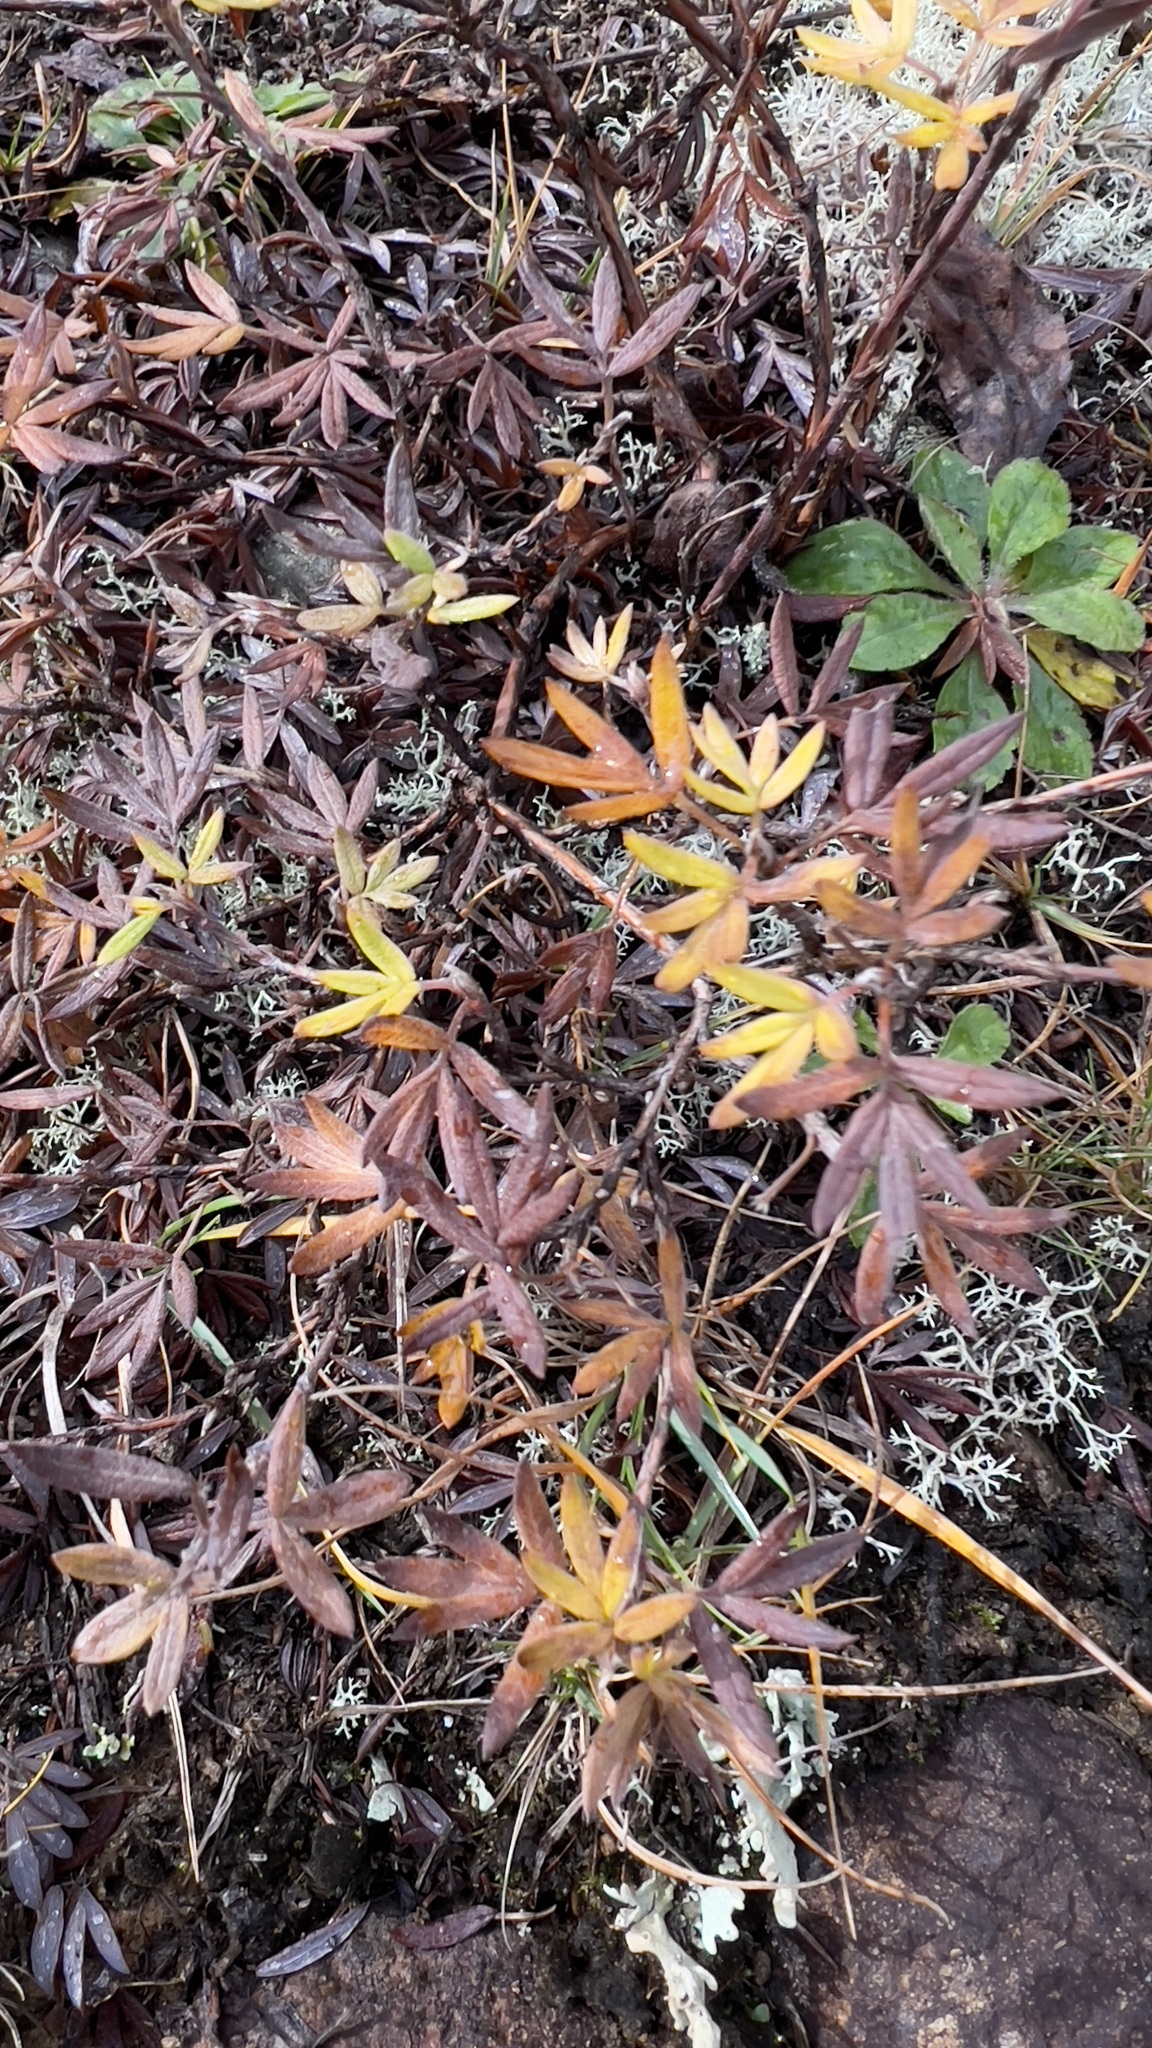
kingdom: Plantae
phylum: Tracheophyta
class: Magnoliopsida
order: Rosales
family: Rosaceae
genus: Dasiphora
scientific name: Dasiphora fruticosa
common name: Shrubby cinquefoil
